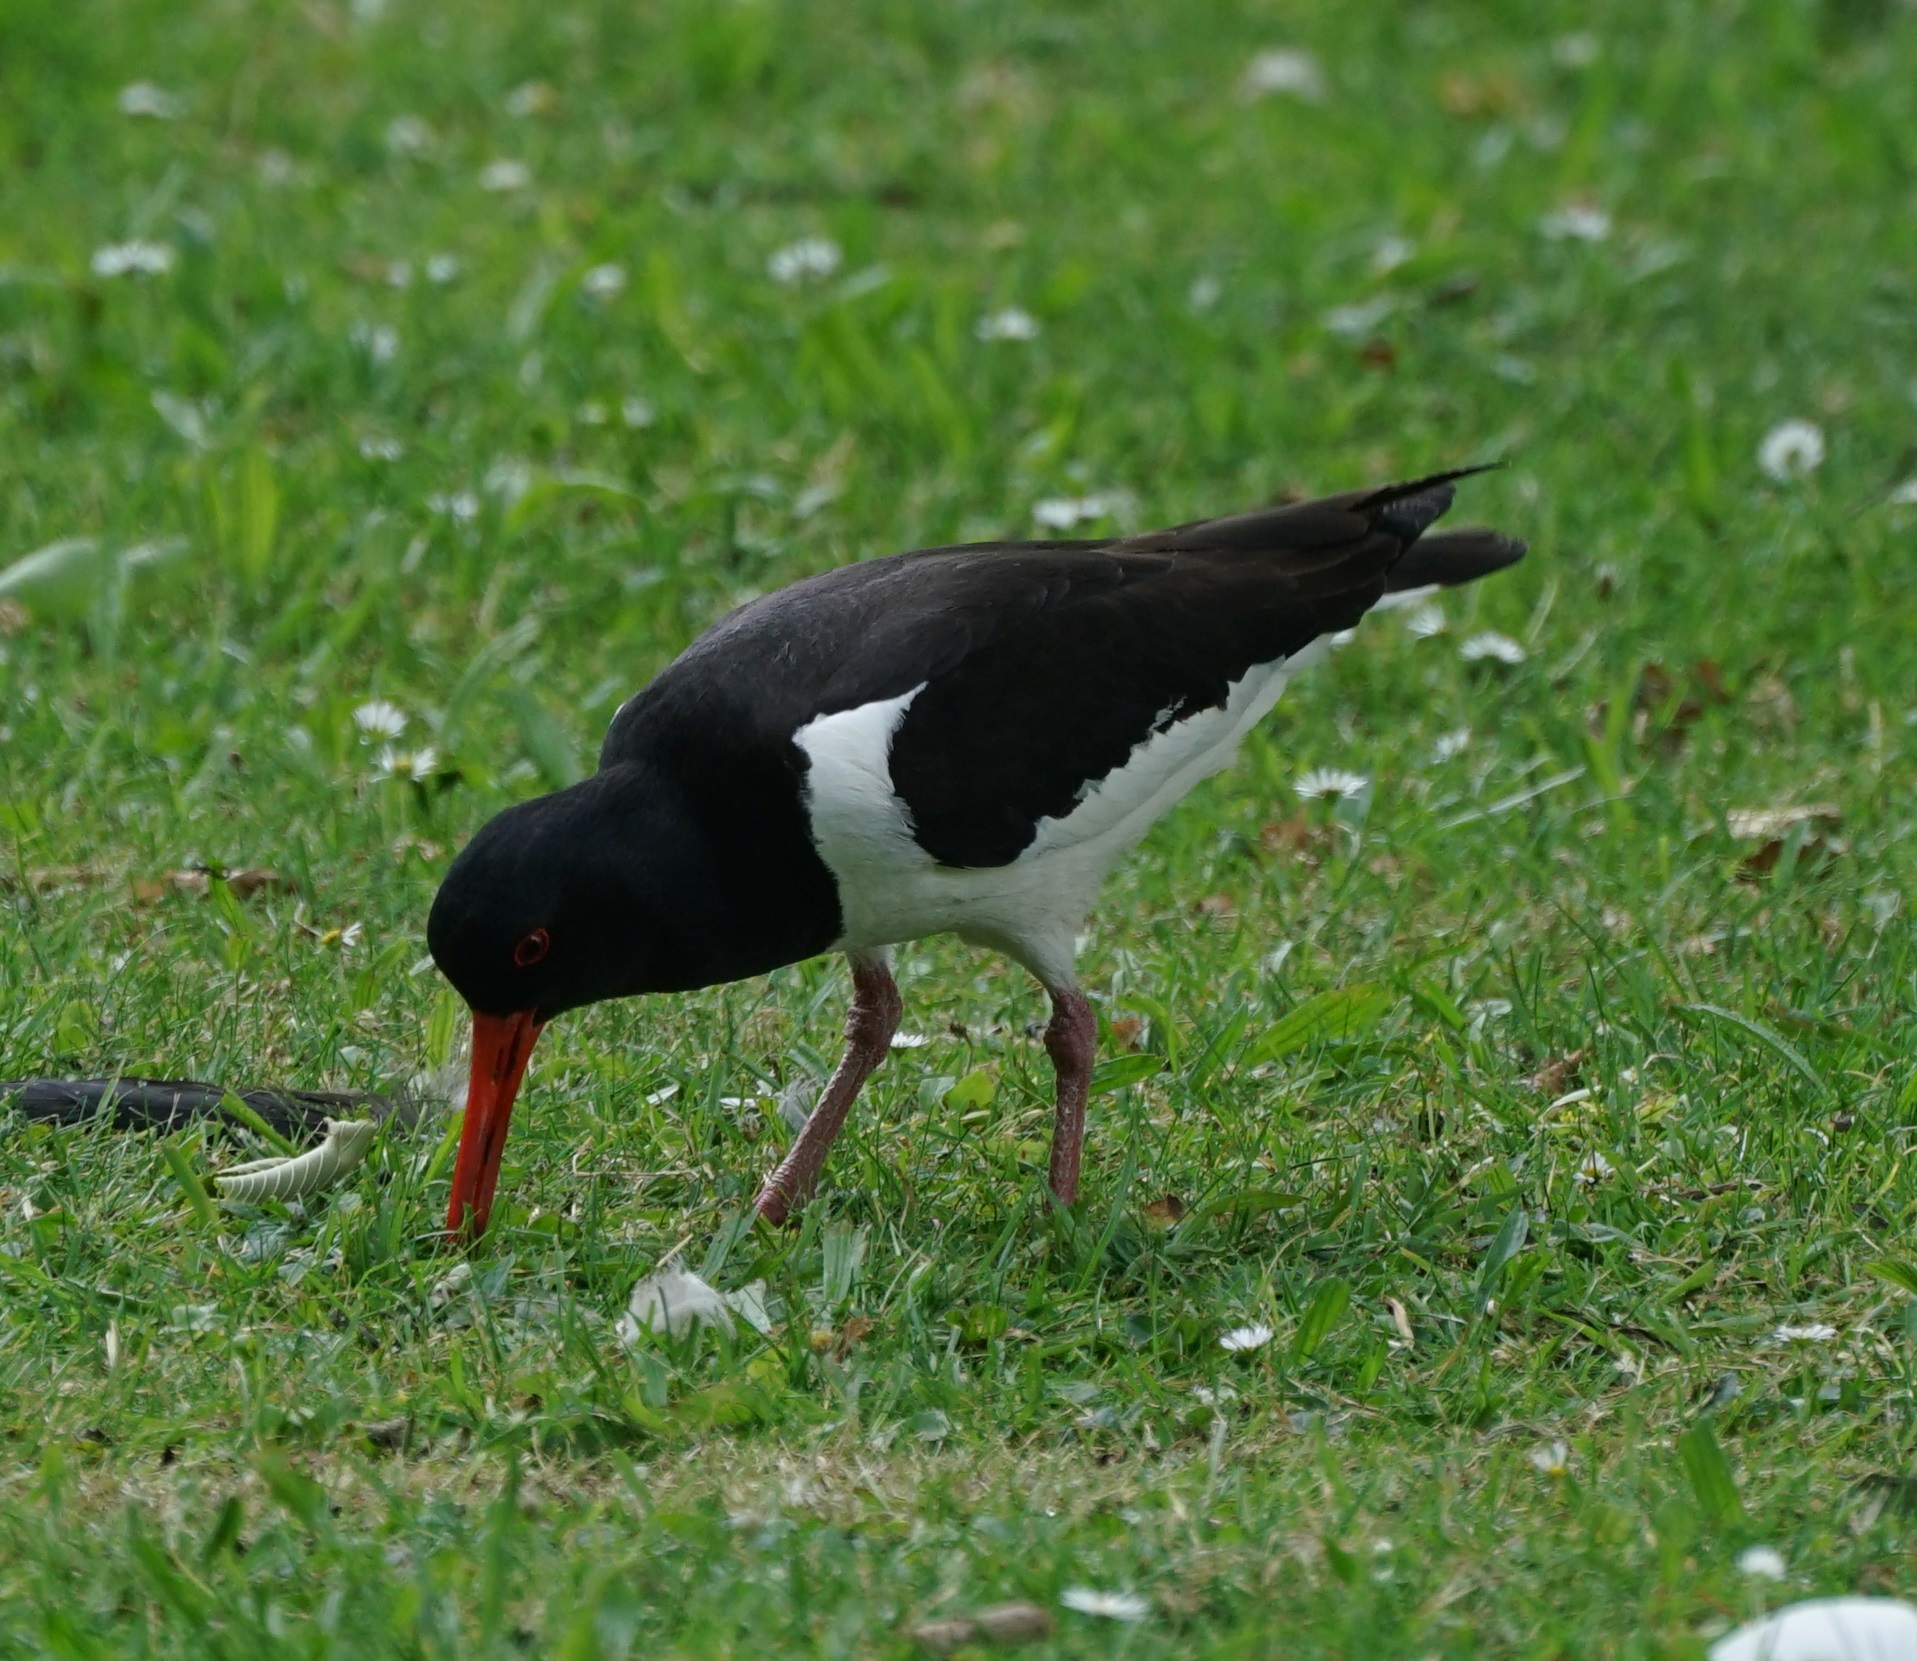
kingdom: Animalia
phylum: Chordata
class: Aves
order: Charadriiformes
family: Haematopodidae
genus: Haematopus
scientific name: Haematopus ostralegus
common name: Eurasian oystercatcher
